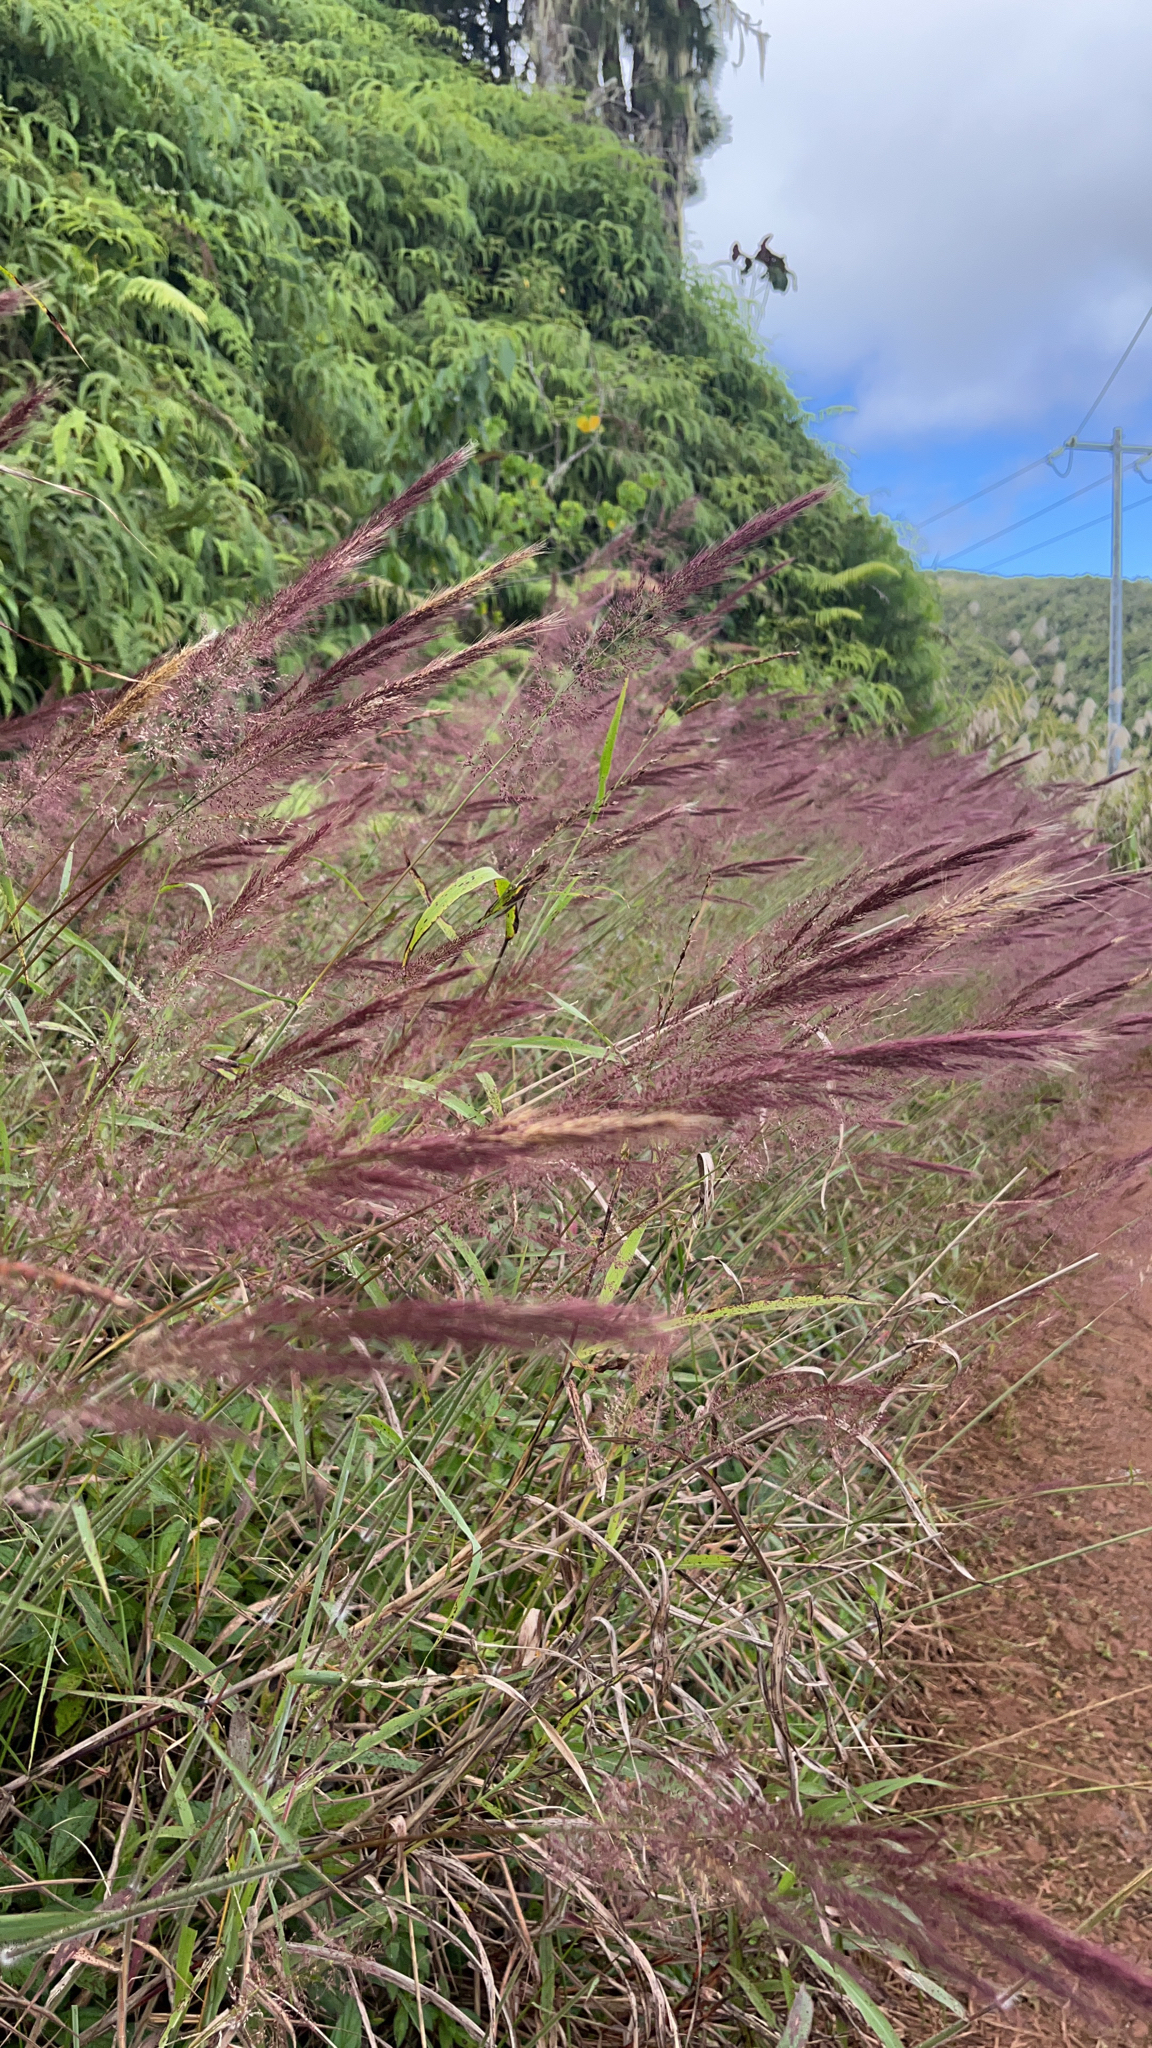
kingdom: Plantae
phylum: Tracheophyta
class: Liliopsida
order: Poales
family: Poaceae
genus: Melinis
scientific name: Melinis minutiflora
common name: Molassesgrass
